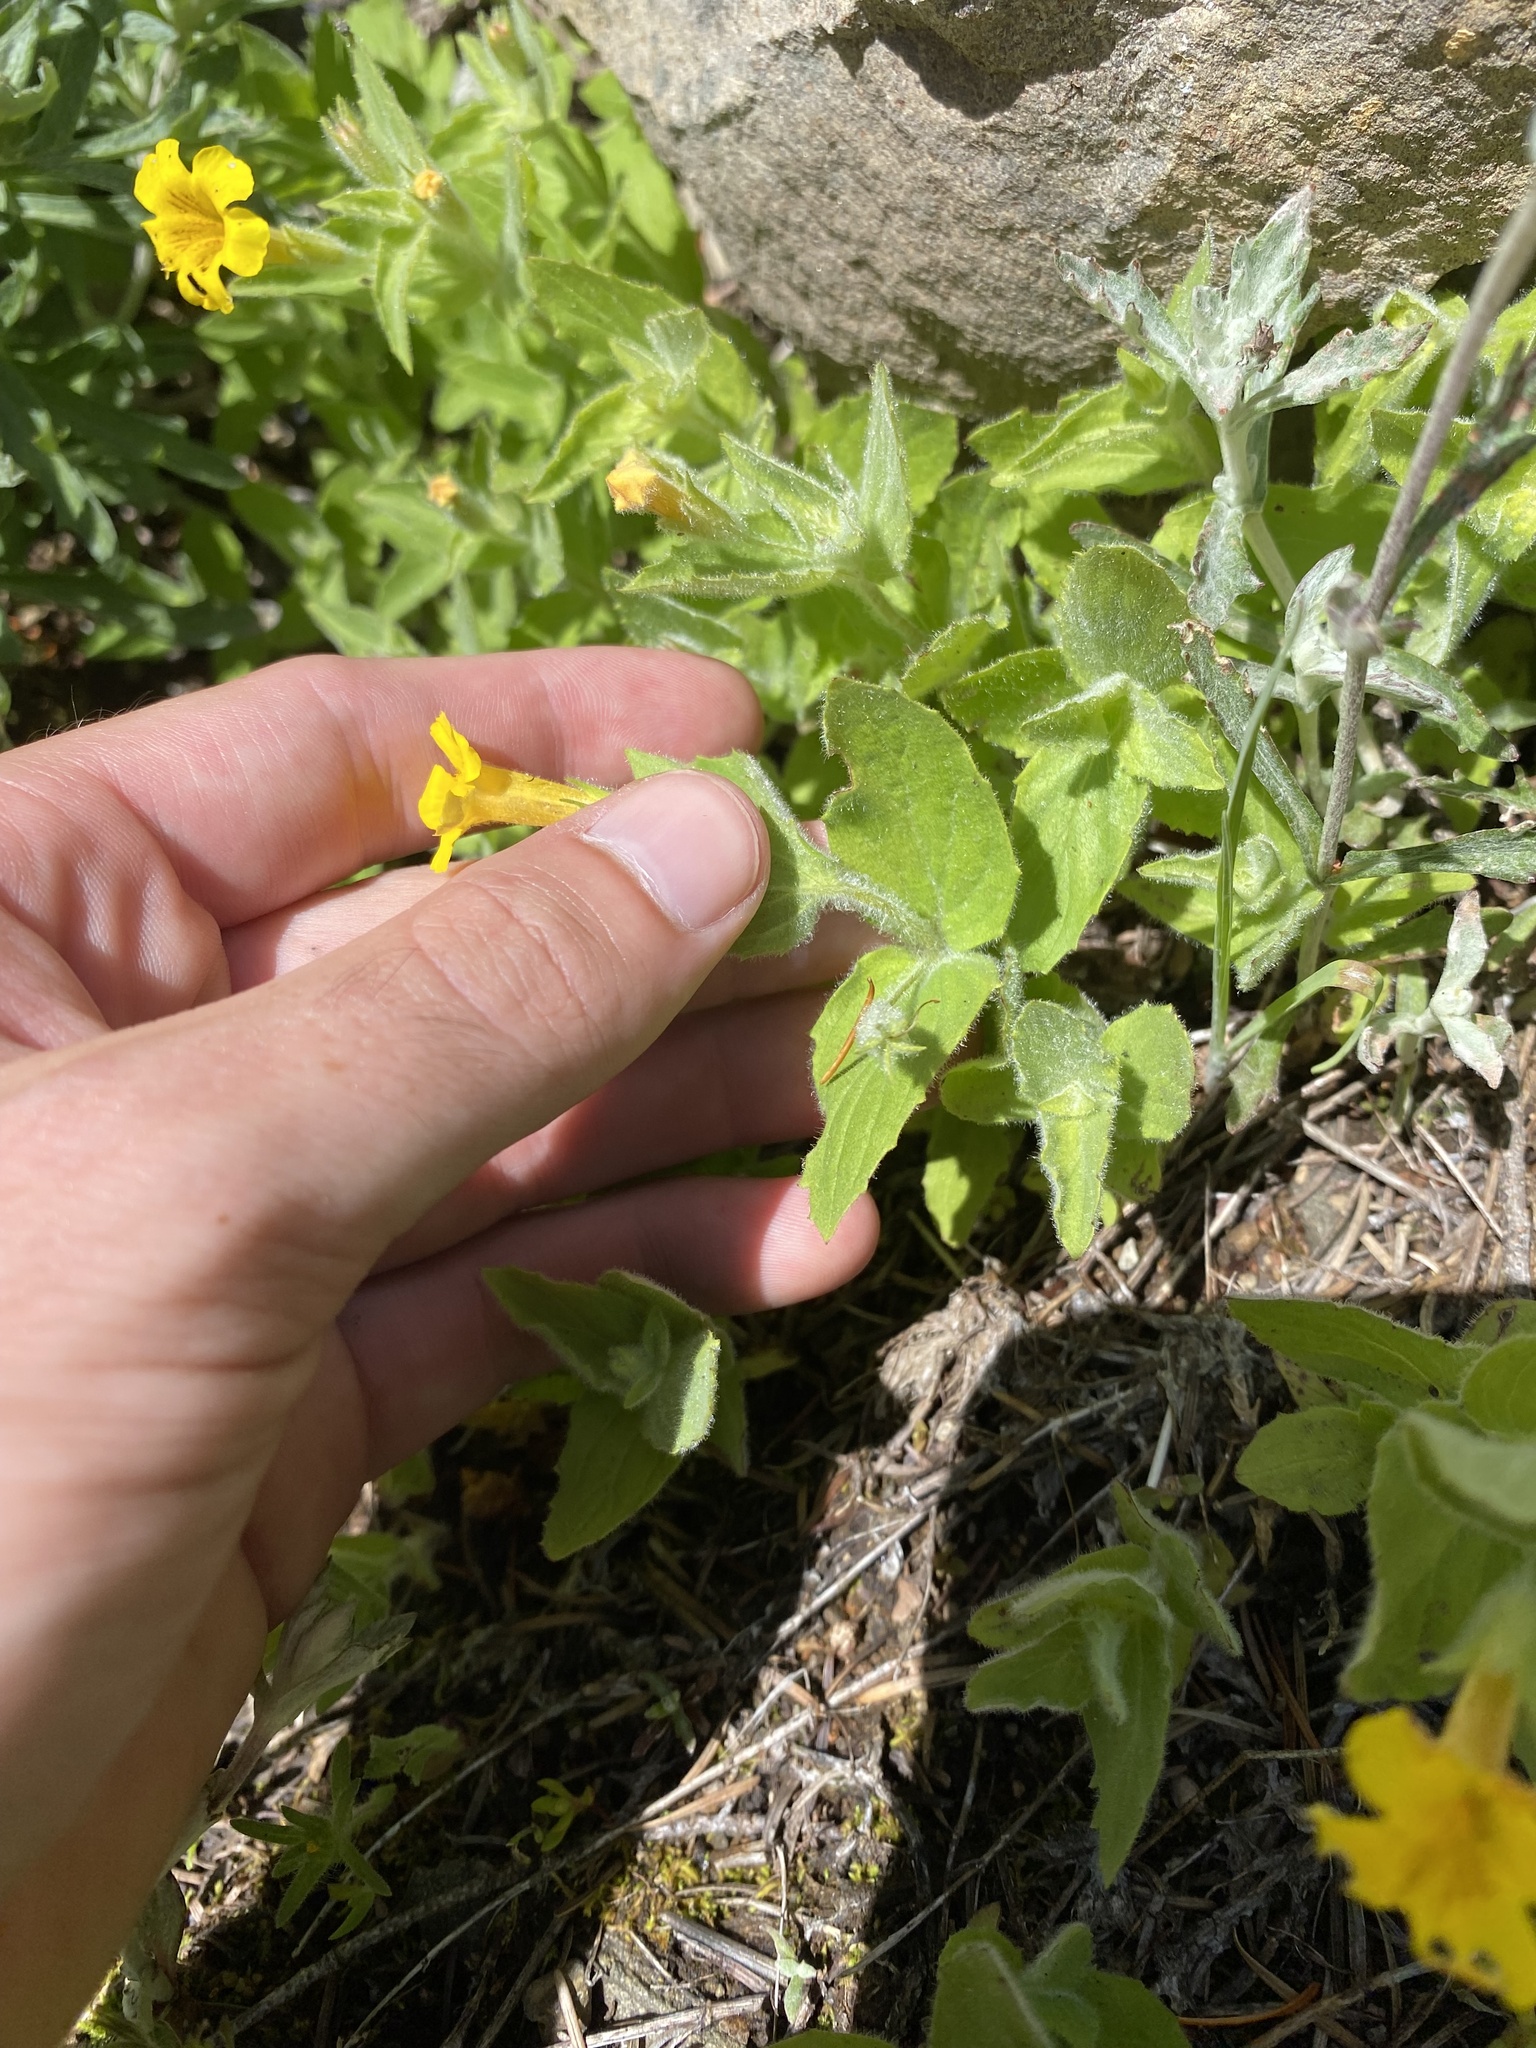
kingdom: Plantae
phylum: Tracheophyta
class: Magnoliopsida
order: Lamiales
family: Phrymaceae
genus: Erythranthe
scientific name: Erythranthe moschata
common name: Muskflower
